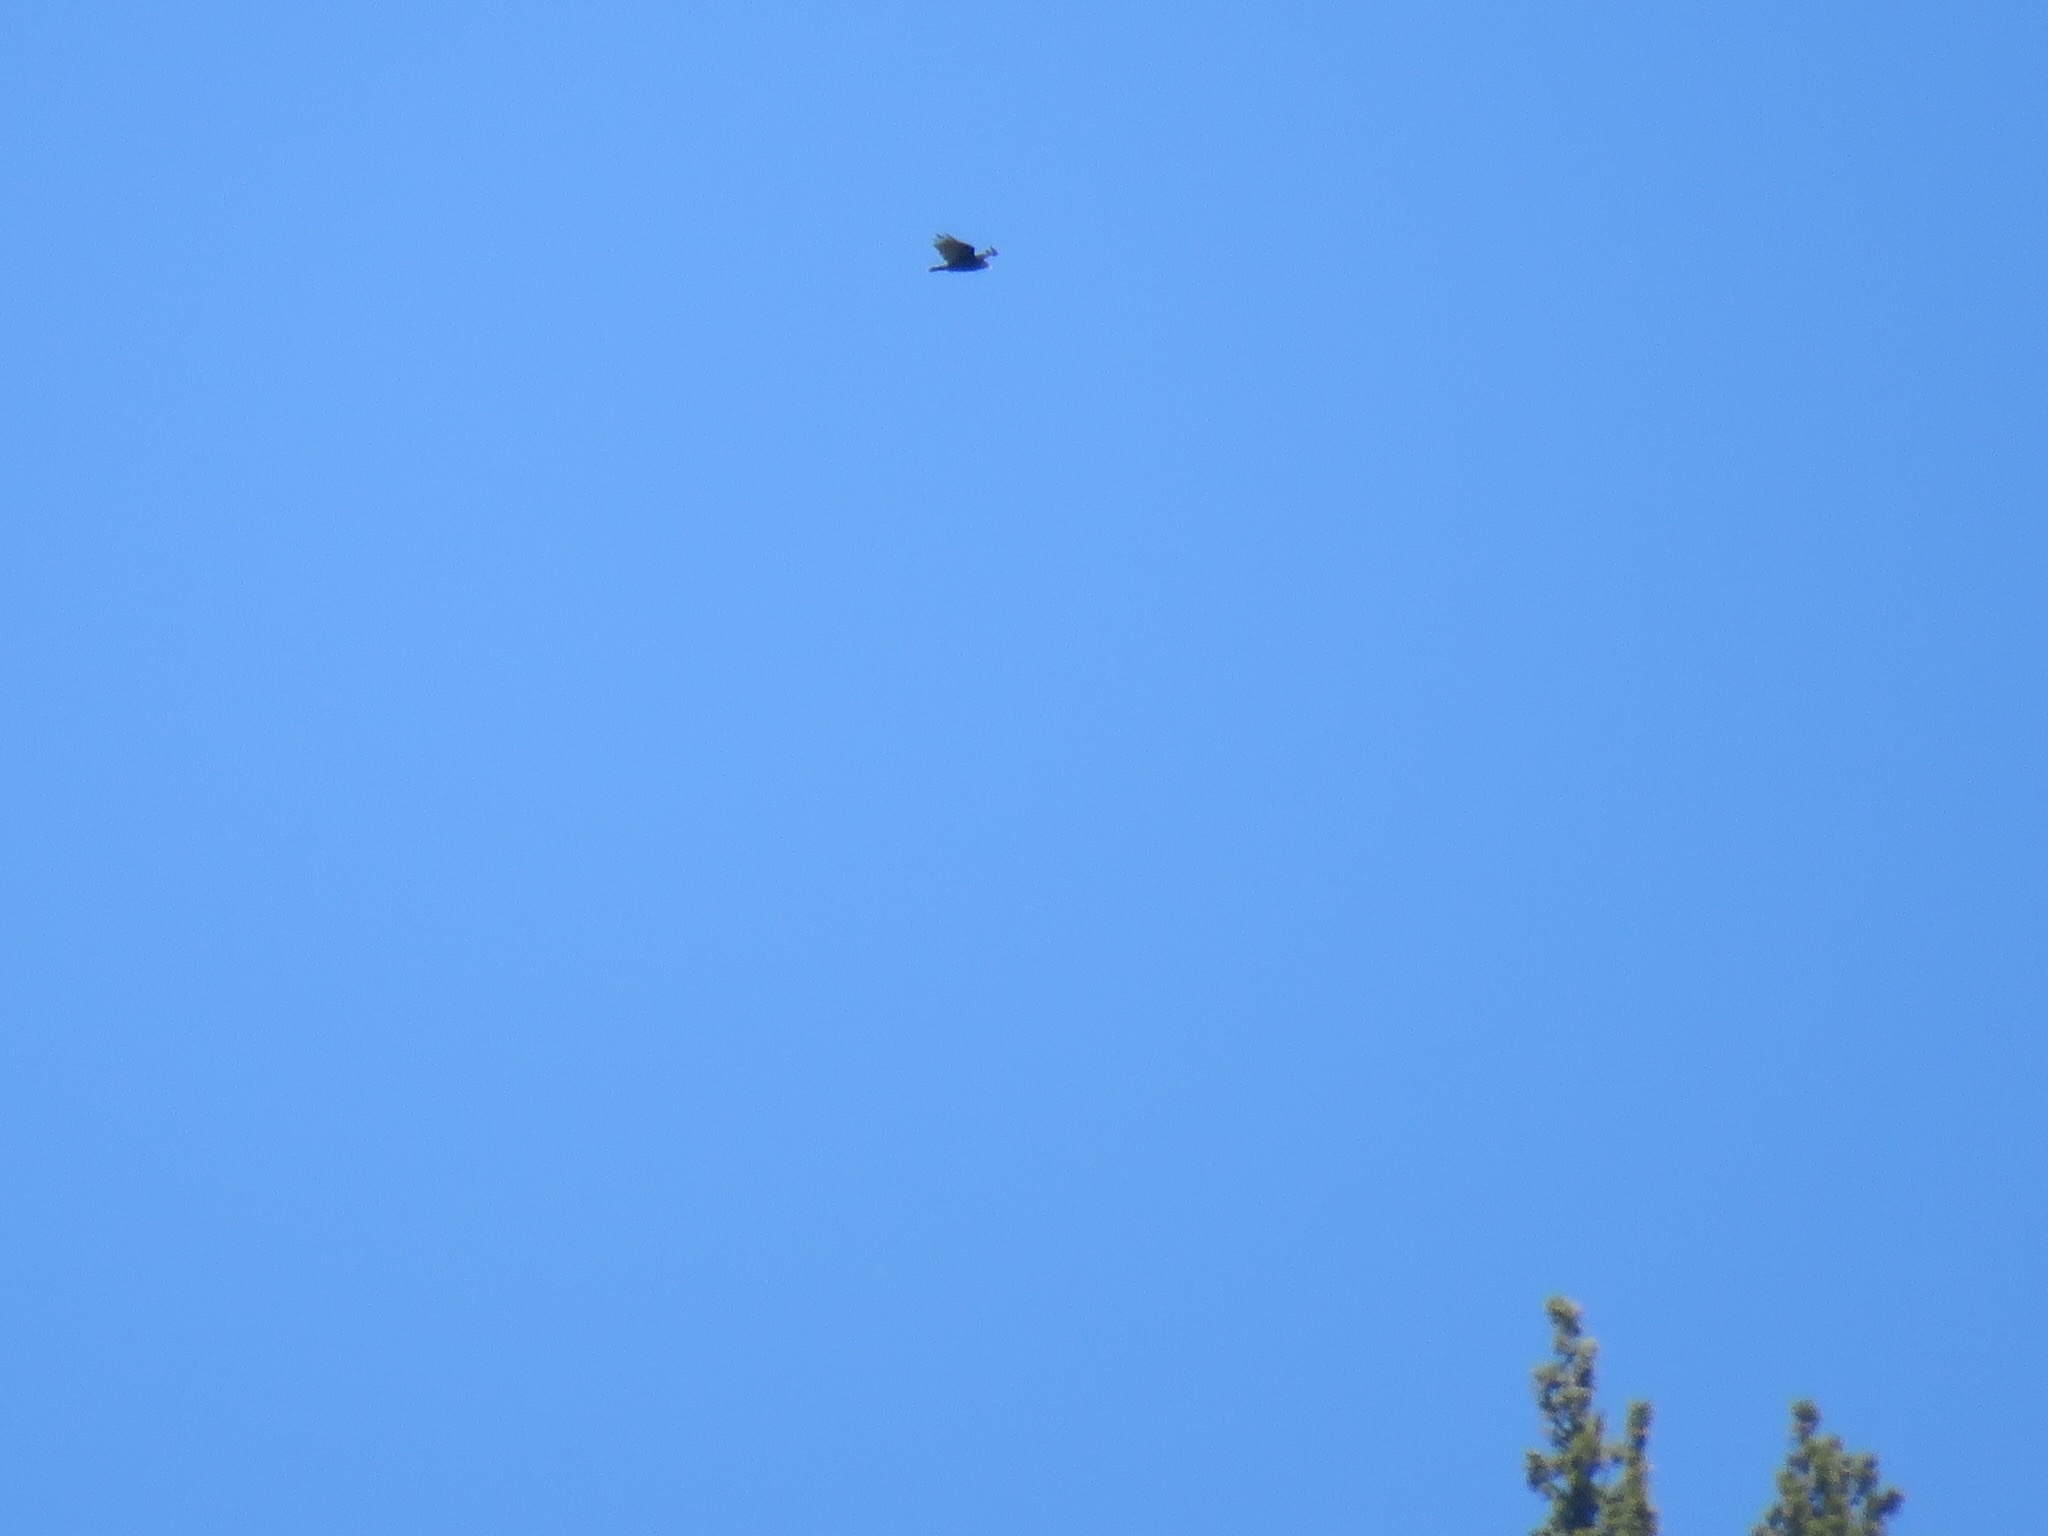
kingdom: Animalia
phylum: Chordata
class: Aves
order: Accipitriformes
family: Cathartidae
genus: Cathartes
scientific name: Cathartes aura
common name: Turkey vulture
